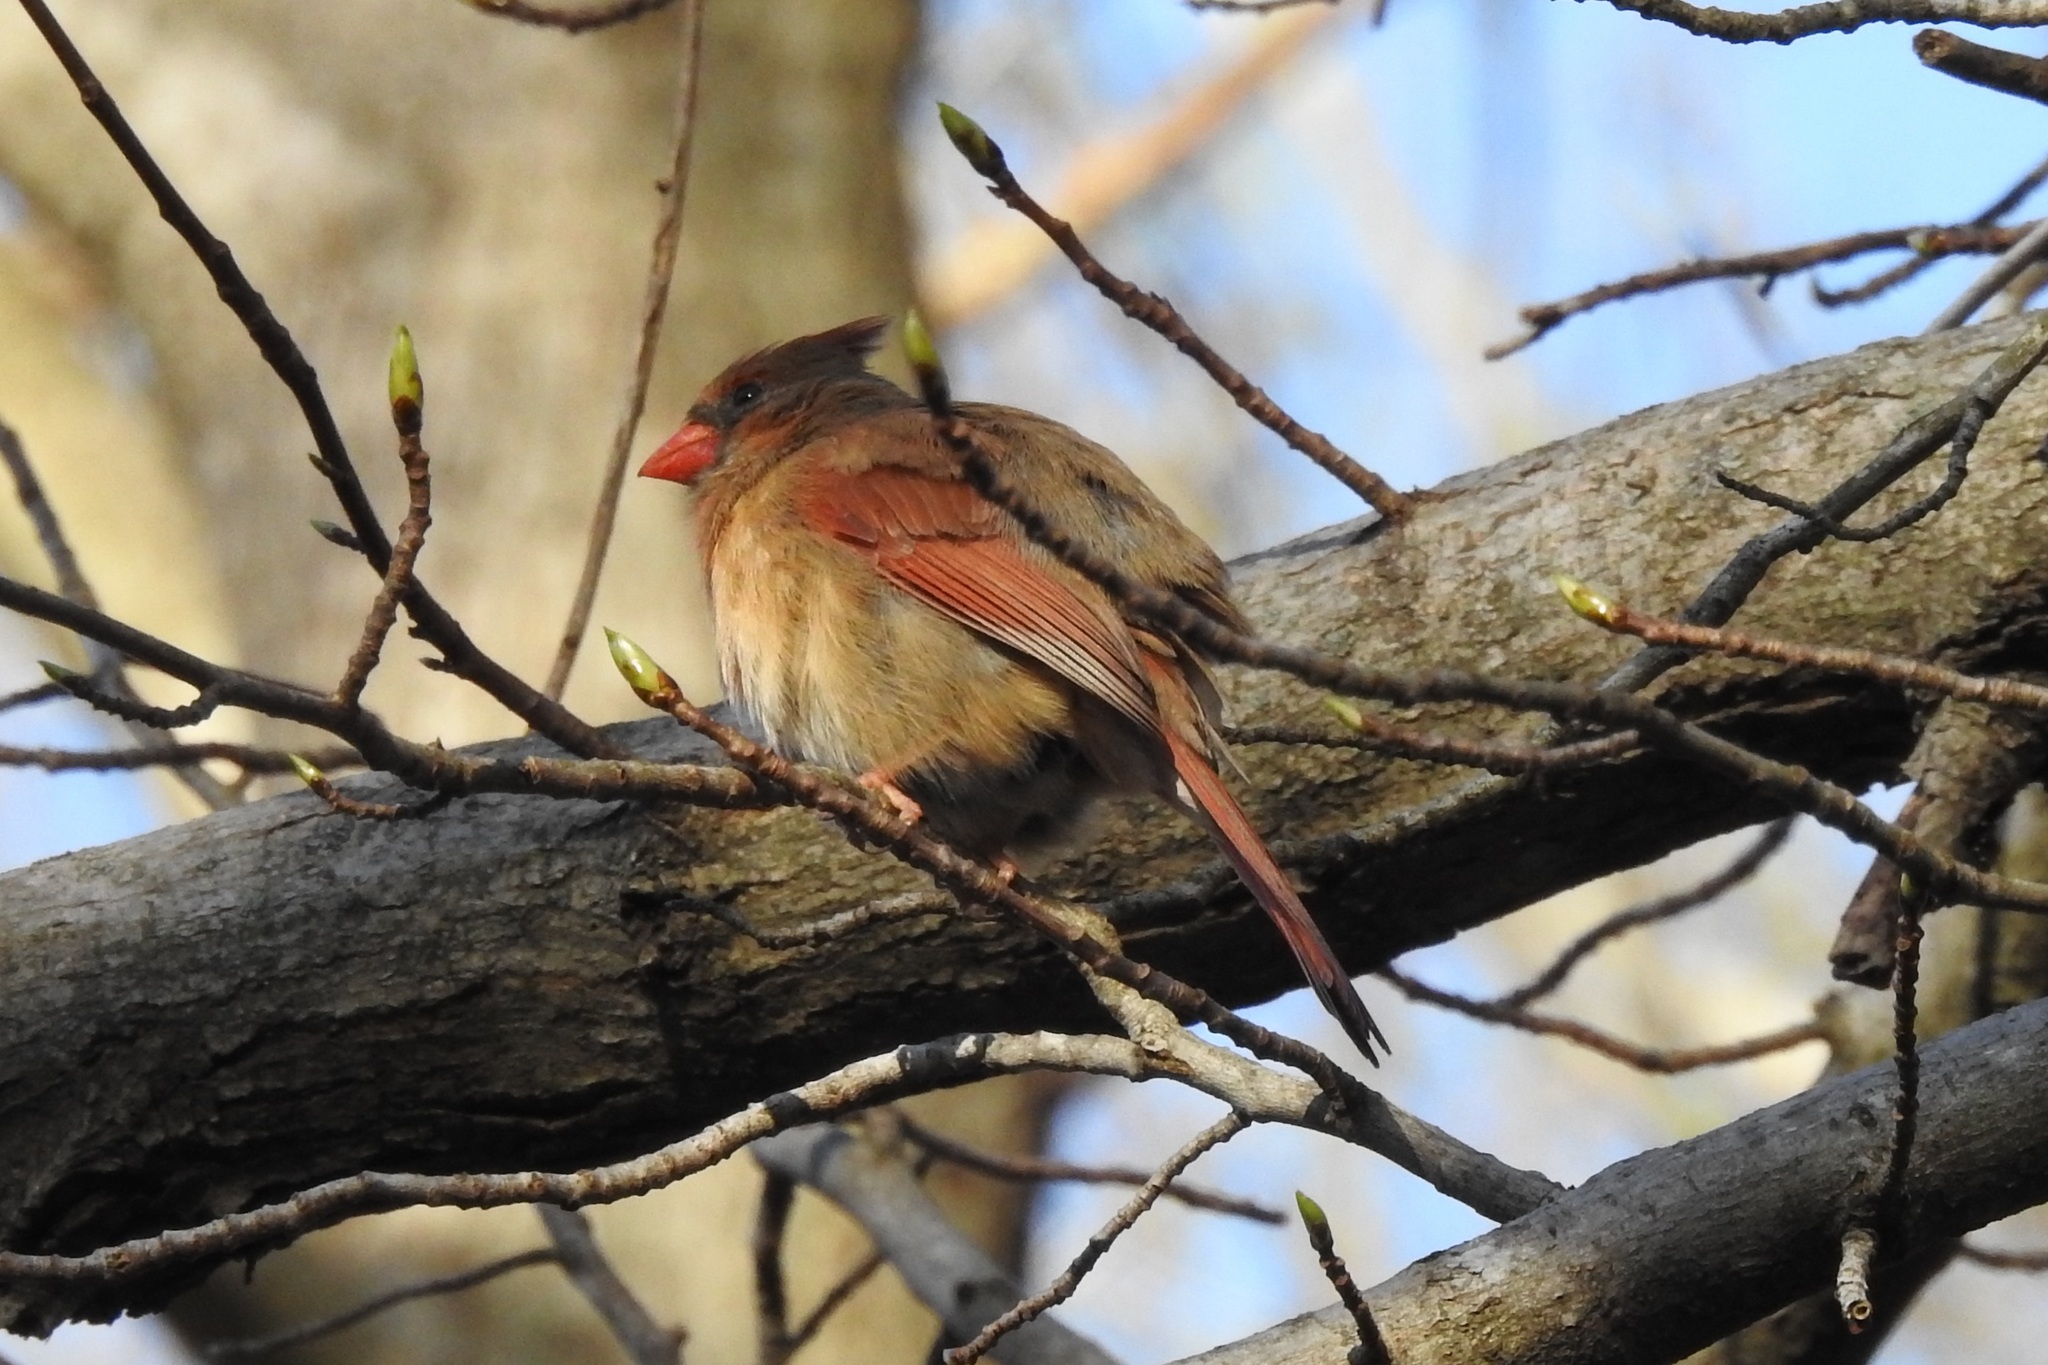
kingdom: Animalia
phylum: Chordata
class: Aves
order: Passeriformes
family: Cardinalidae
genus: Cardinalis
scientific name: Cardinalis cardinalis
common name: Northern cardinal
